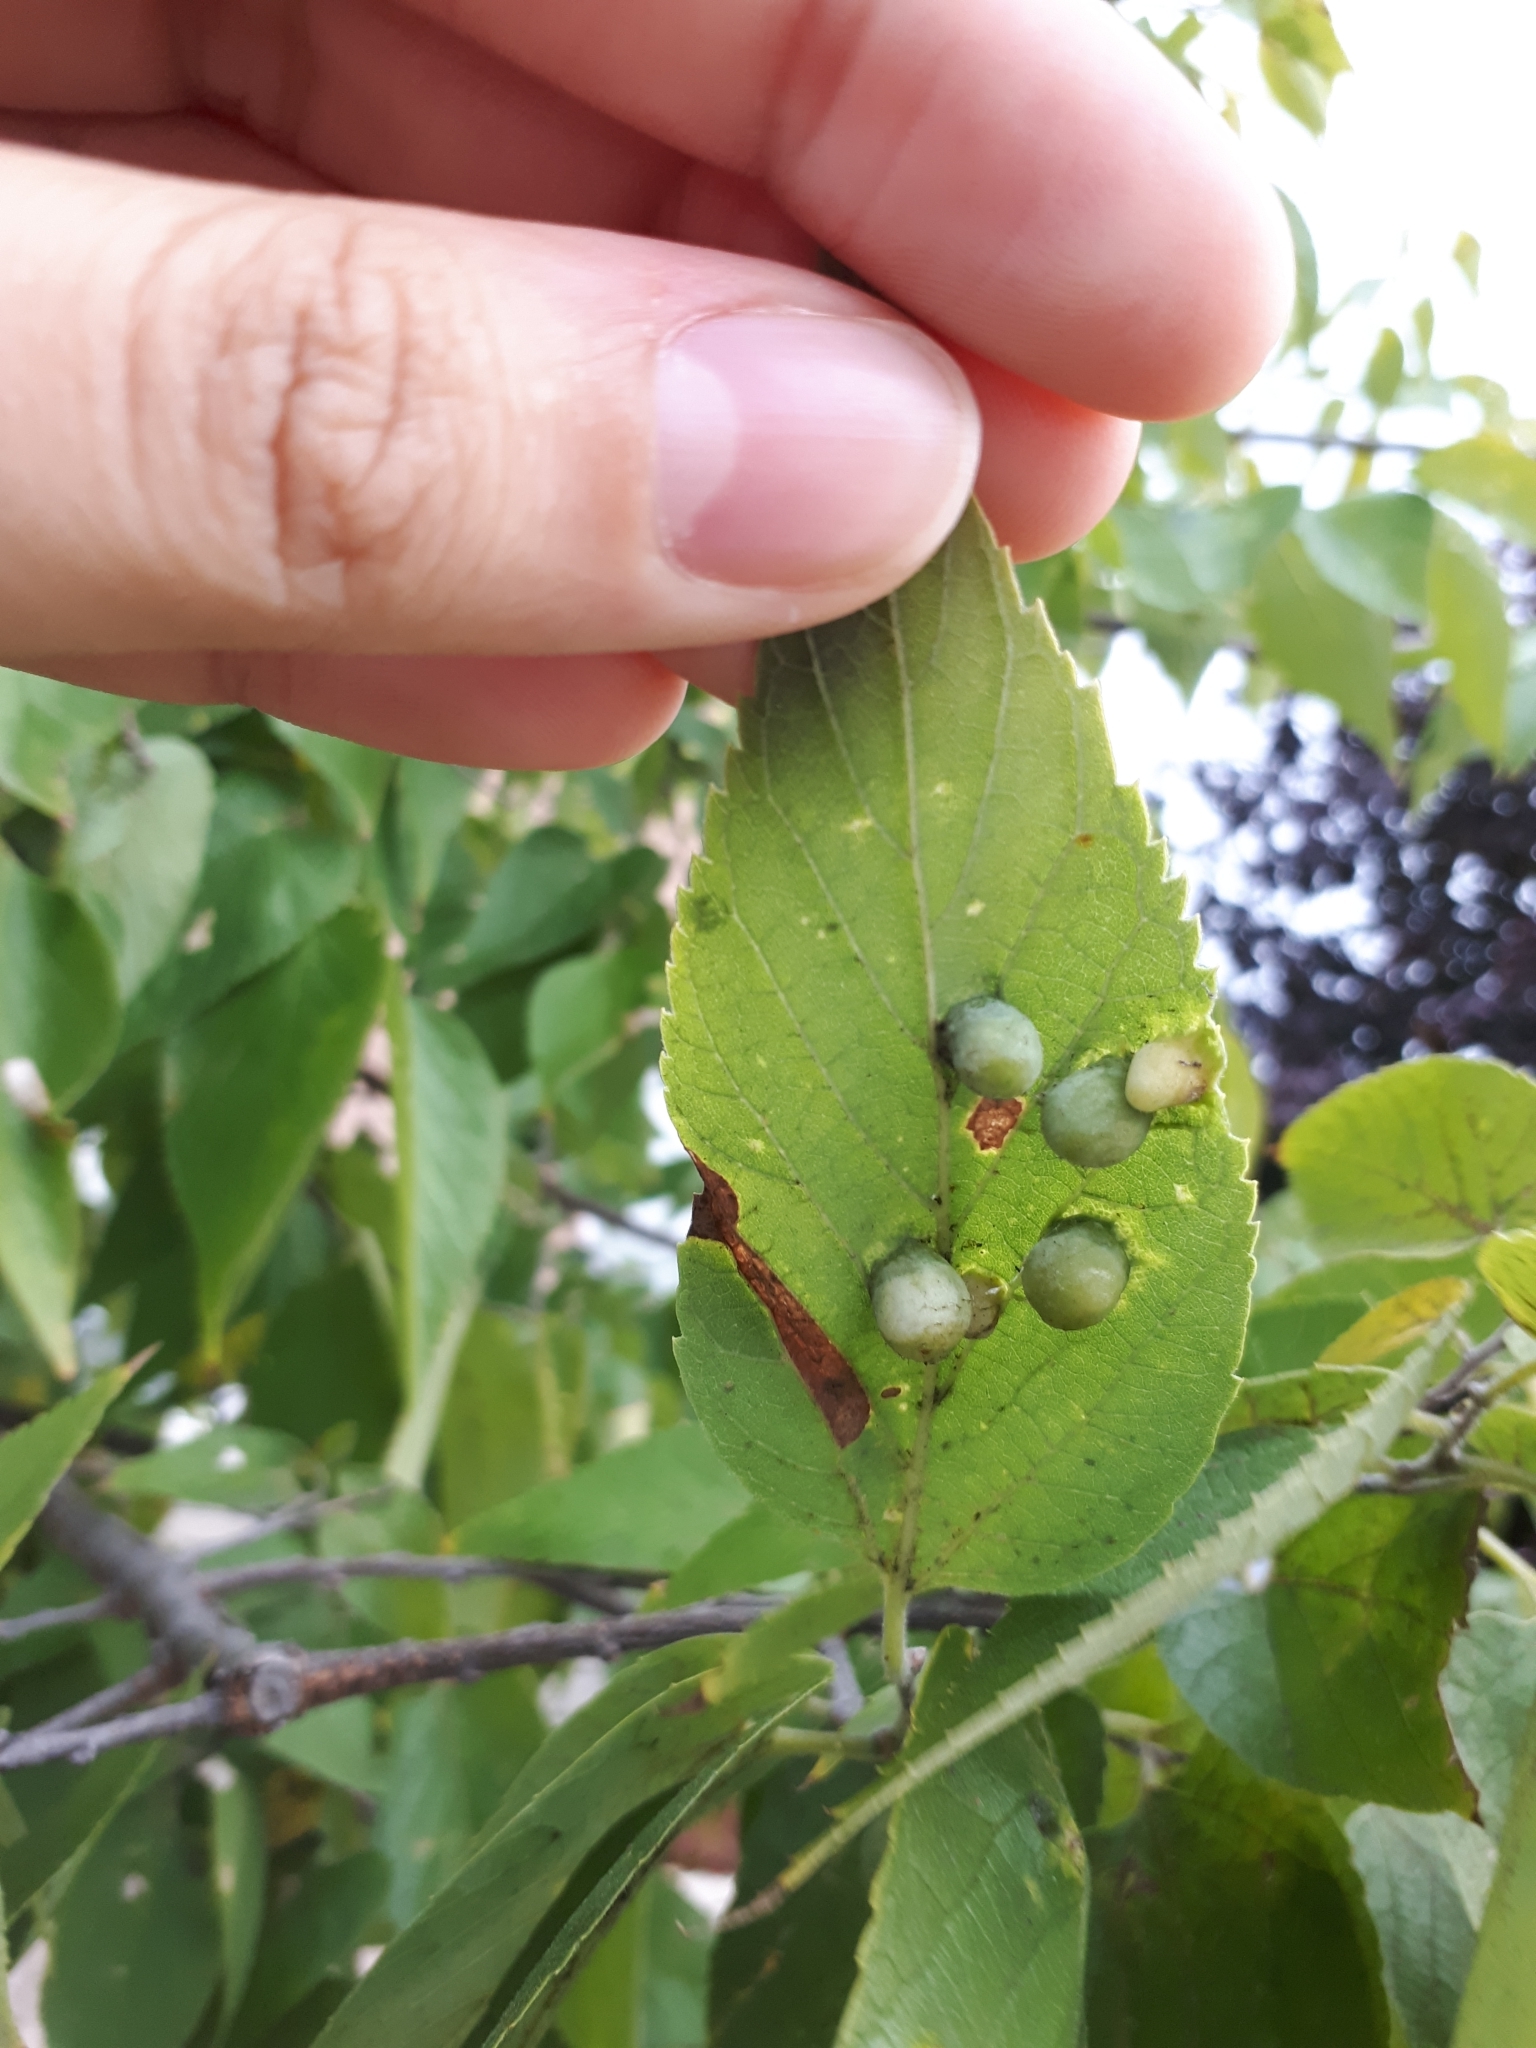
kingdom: Animalia
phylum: Arthropoda
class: Insecta
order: Hemiptera
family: Aphalaridae
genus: Pachypsylla
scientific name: Pachypsylla celtidismamma
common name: Hackberry nipplegall psyllid
